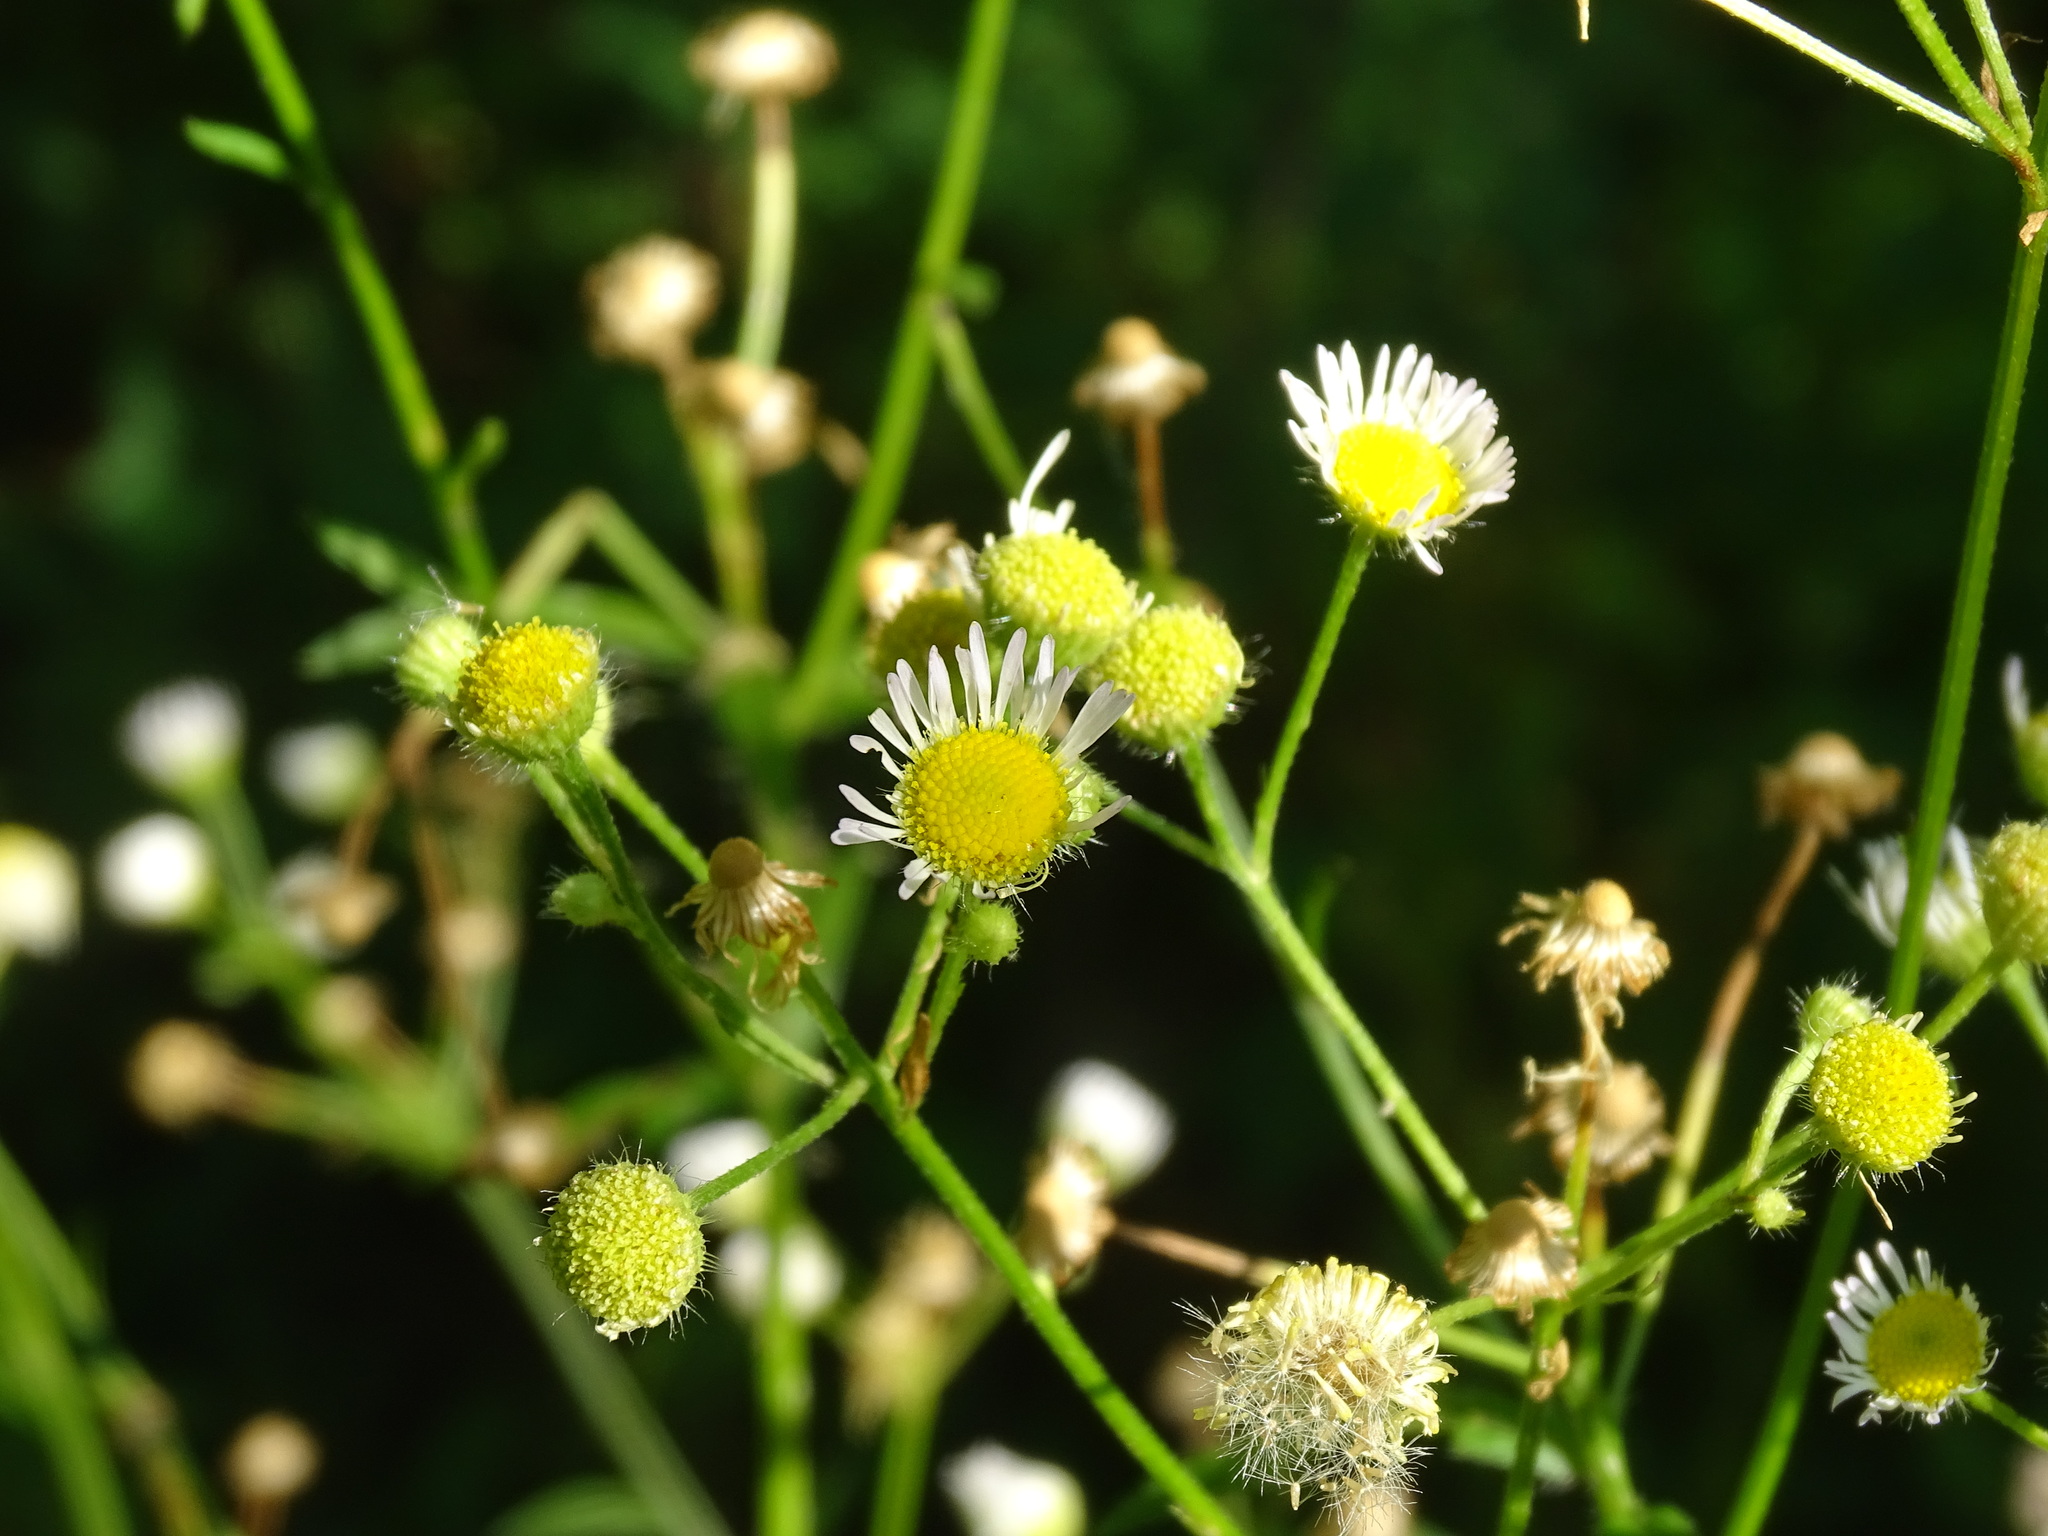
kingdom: Plantae
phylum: Tracheophyta
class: Magnoliopsida
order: Asterales
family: Asteraceae
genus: Erigeron
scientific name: Erigeron annuus
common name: Tall fleabane
